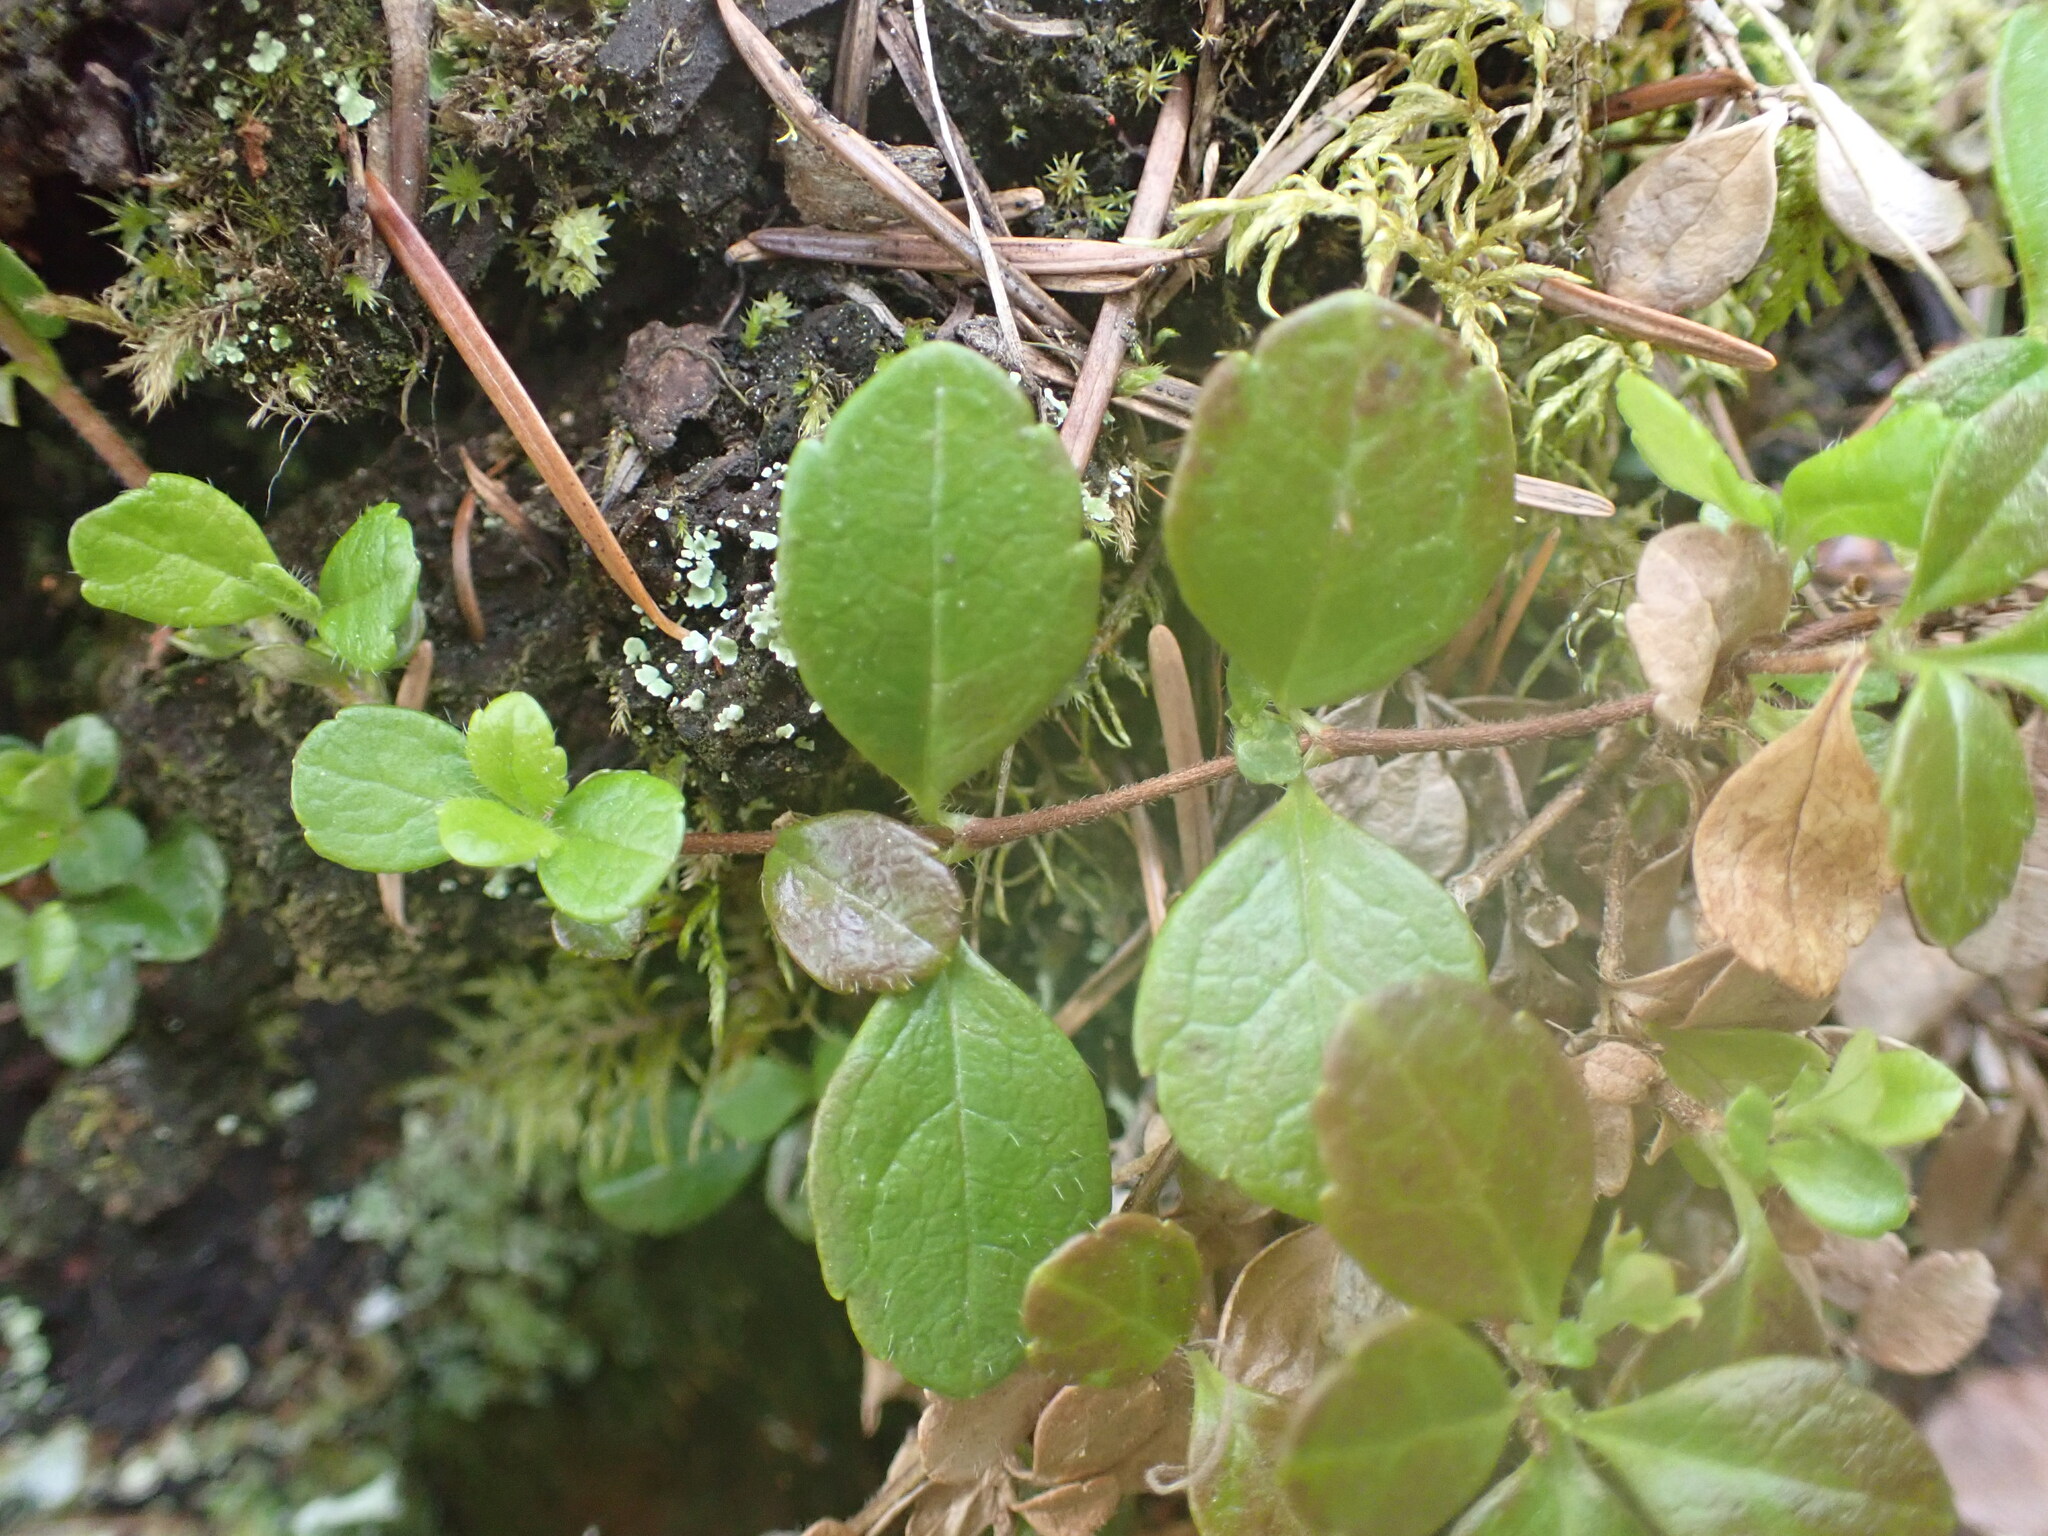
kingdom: Plantae
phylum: Tracheophyta
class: Magnoliopsida
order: Dipsacales
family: Caprifoliaceae
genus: Linnaea
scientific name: Linnaea borealis
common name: Twinflower
